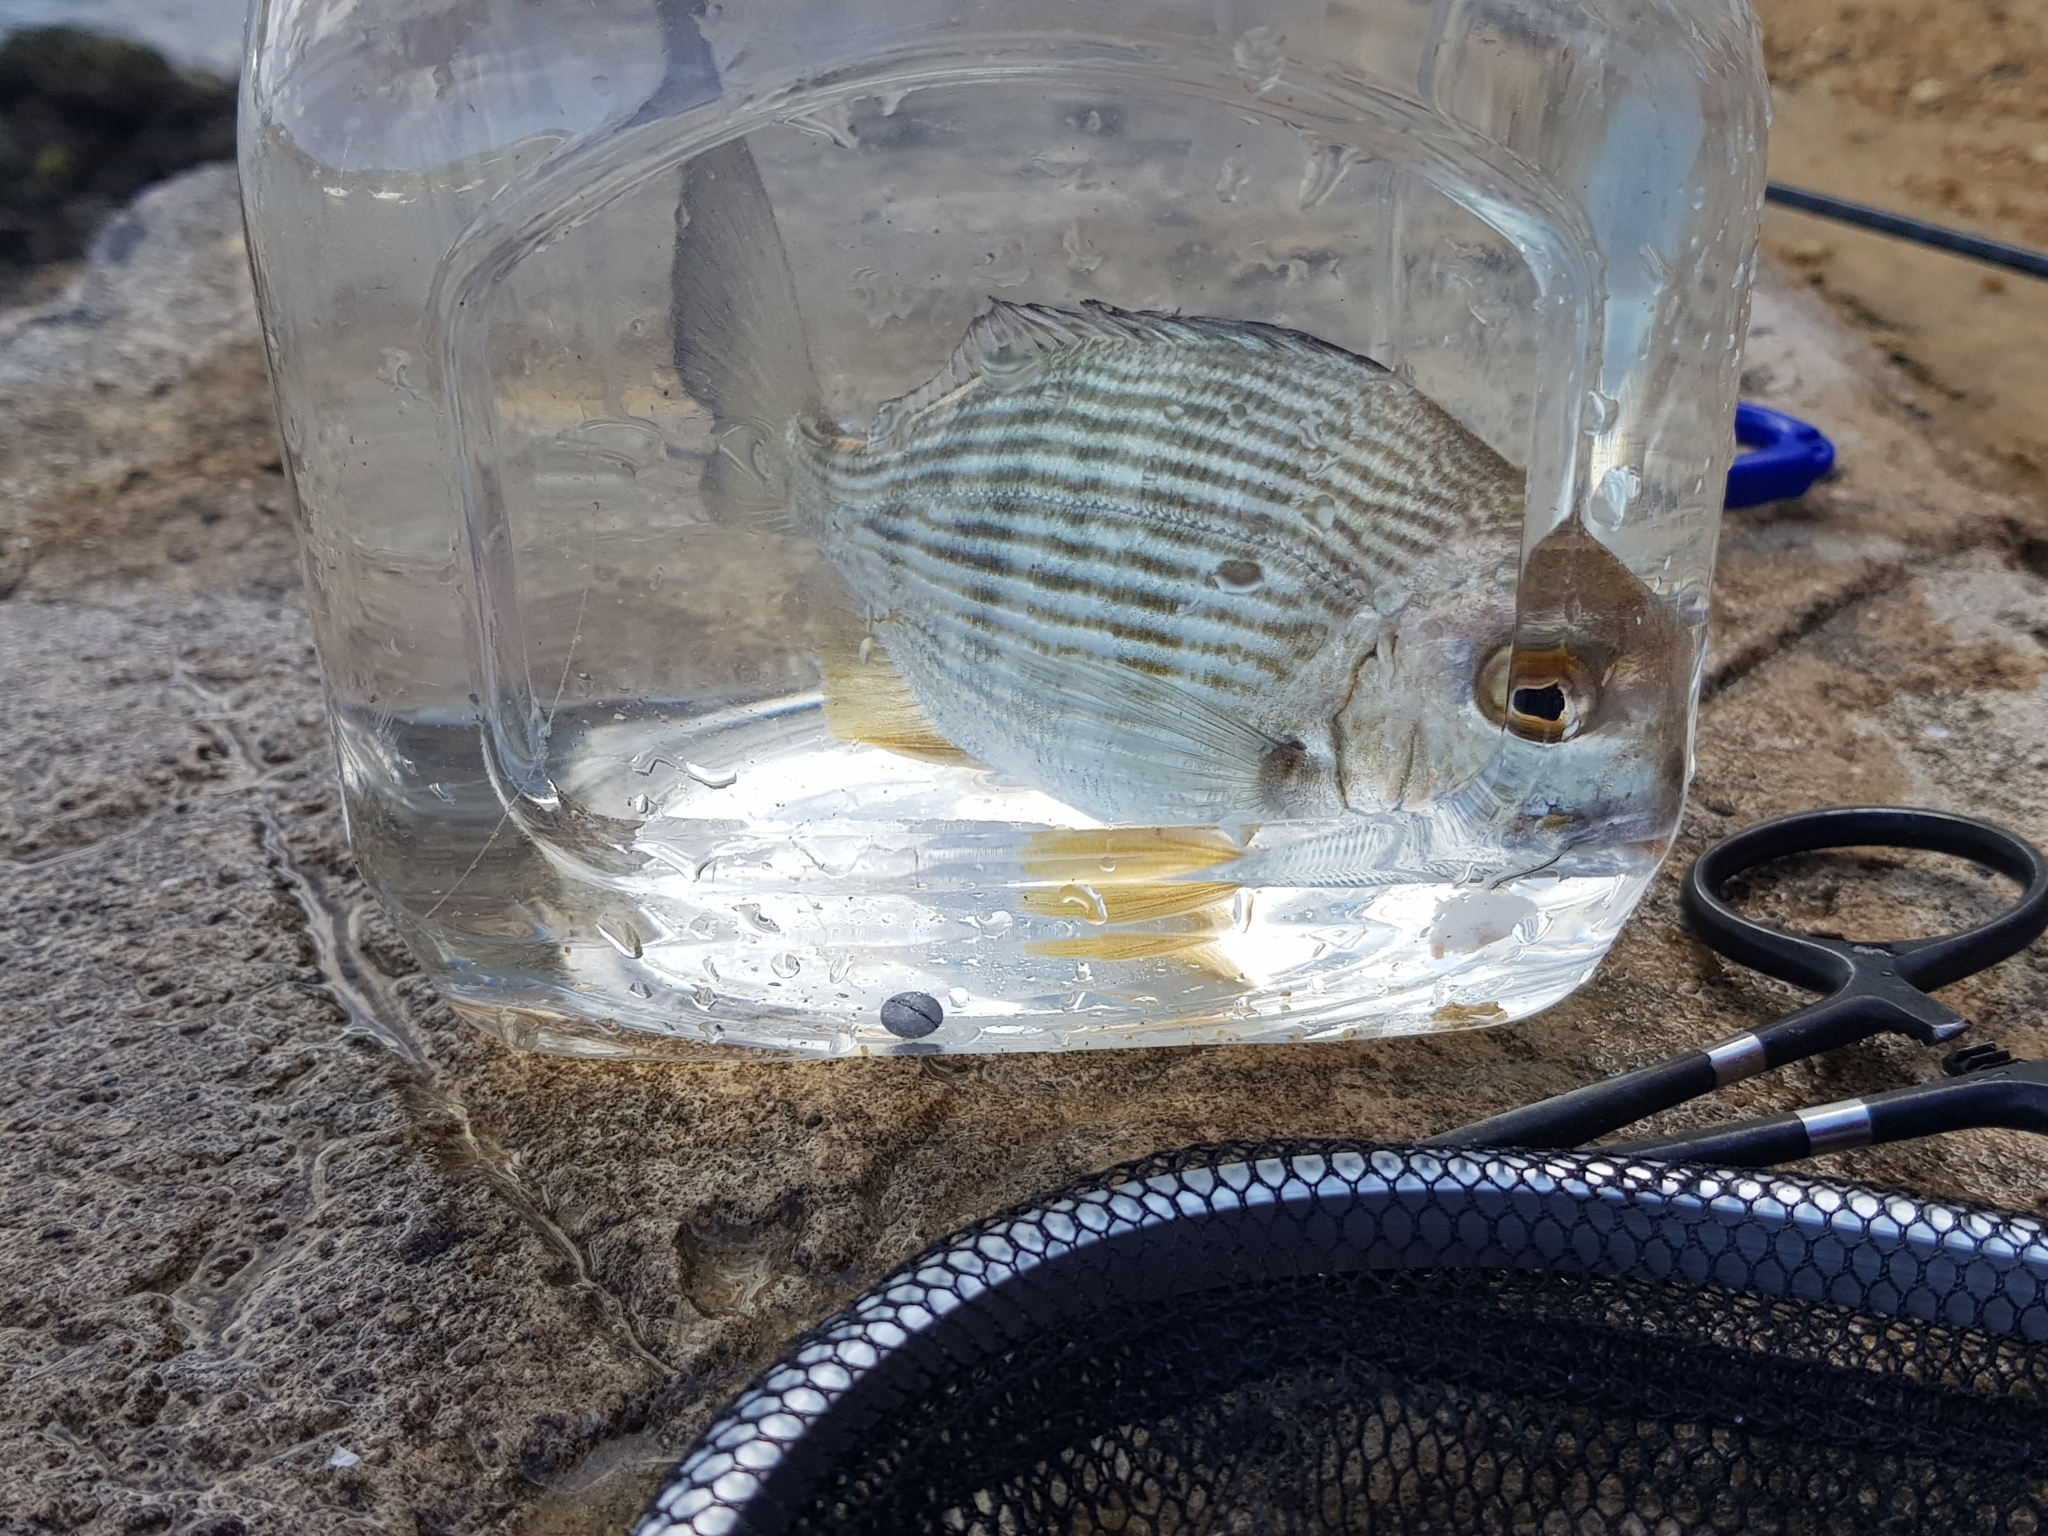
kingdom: Animalia
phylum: Chordata
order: Perciformes
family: Sparidae
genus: Rhabdosargus
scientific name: Rhabdosargus sarba
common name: Goldlined seabream
